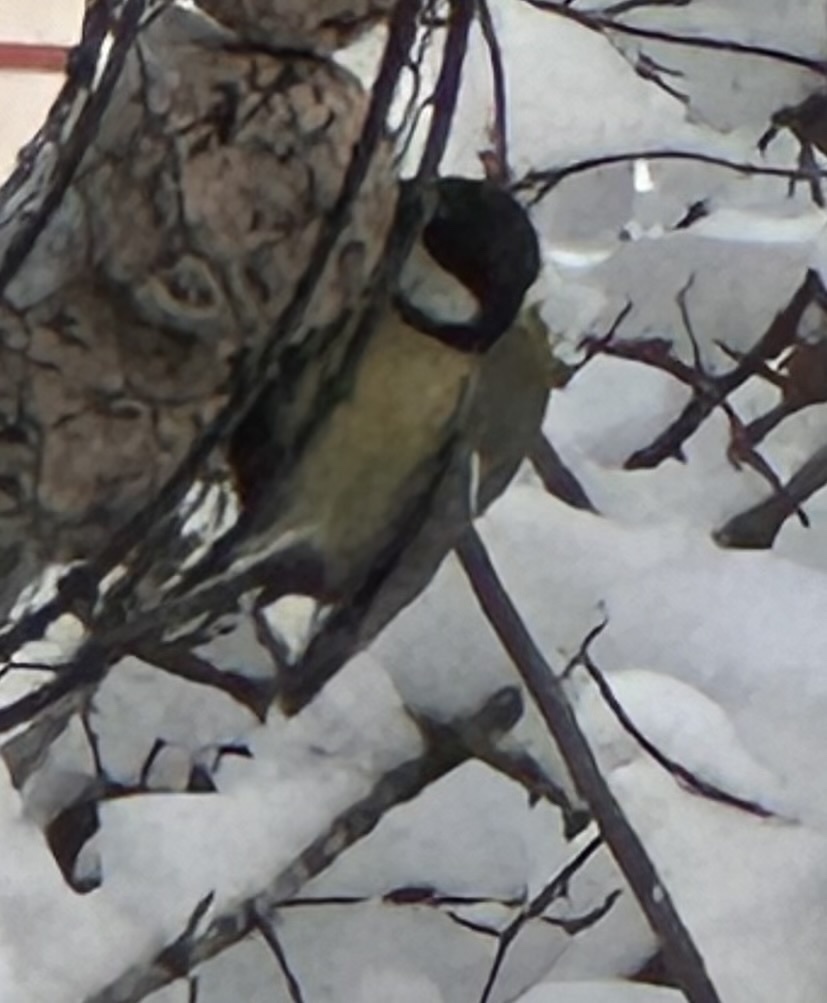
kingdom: Animalia
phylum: Chordata
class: Aves
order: Passeriformes
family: Paridae
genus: Parus
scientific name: Parus major
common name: Great tit
